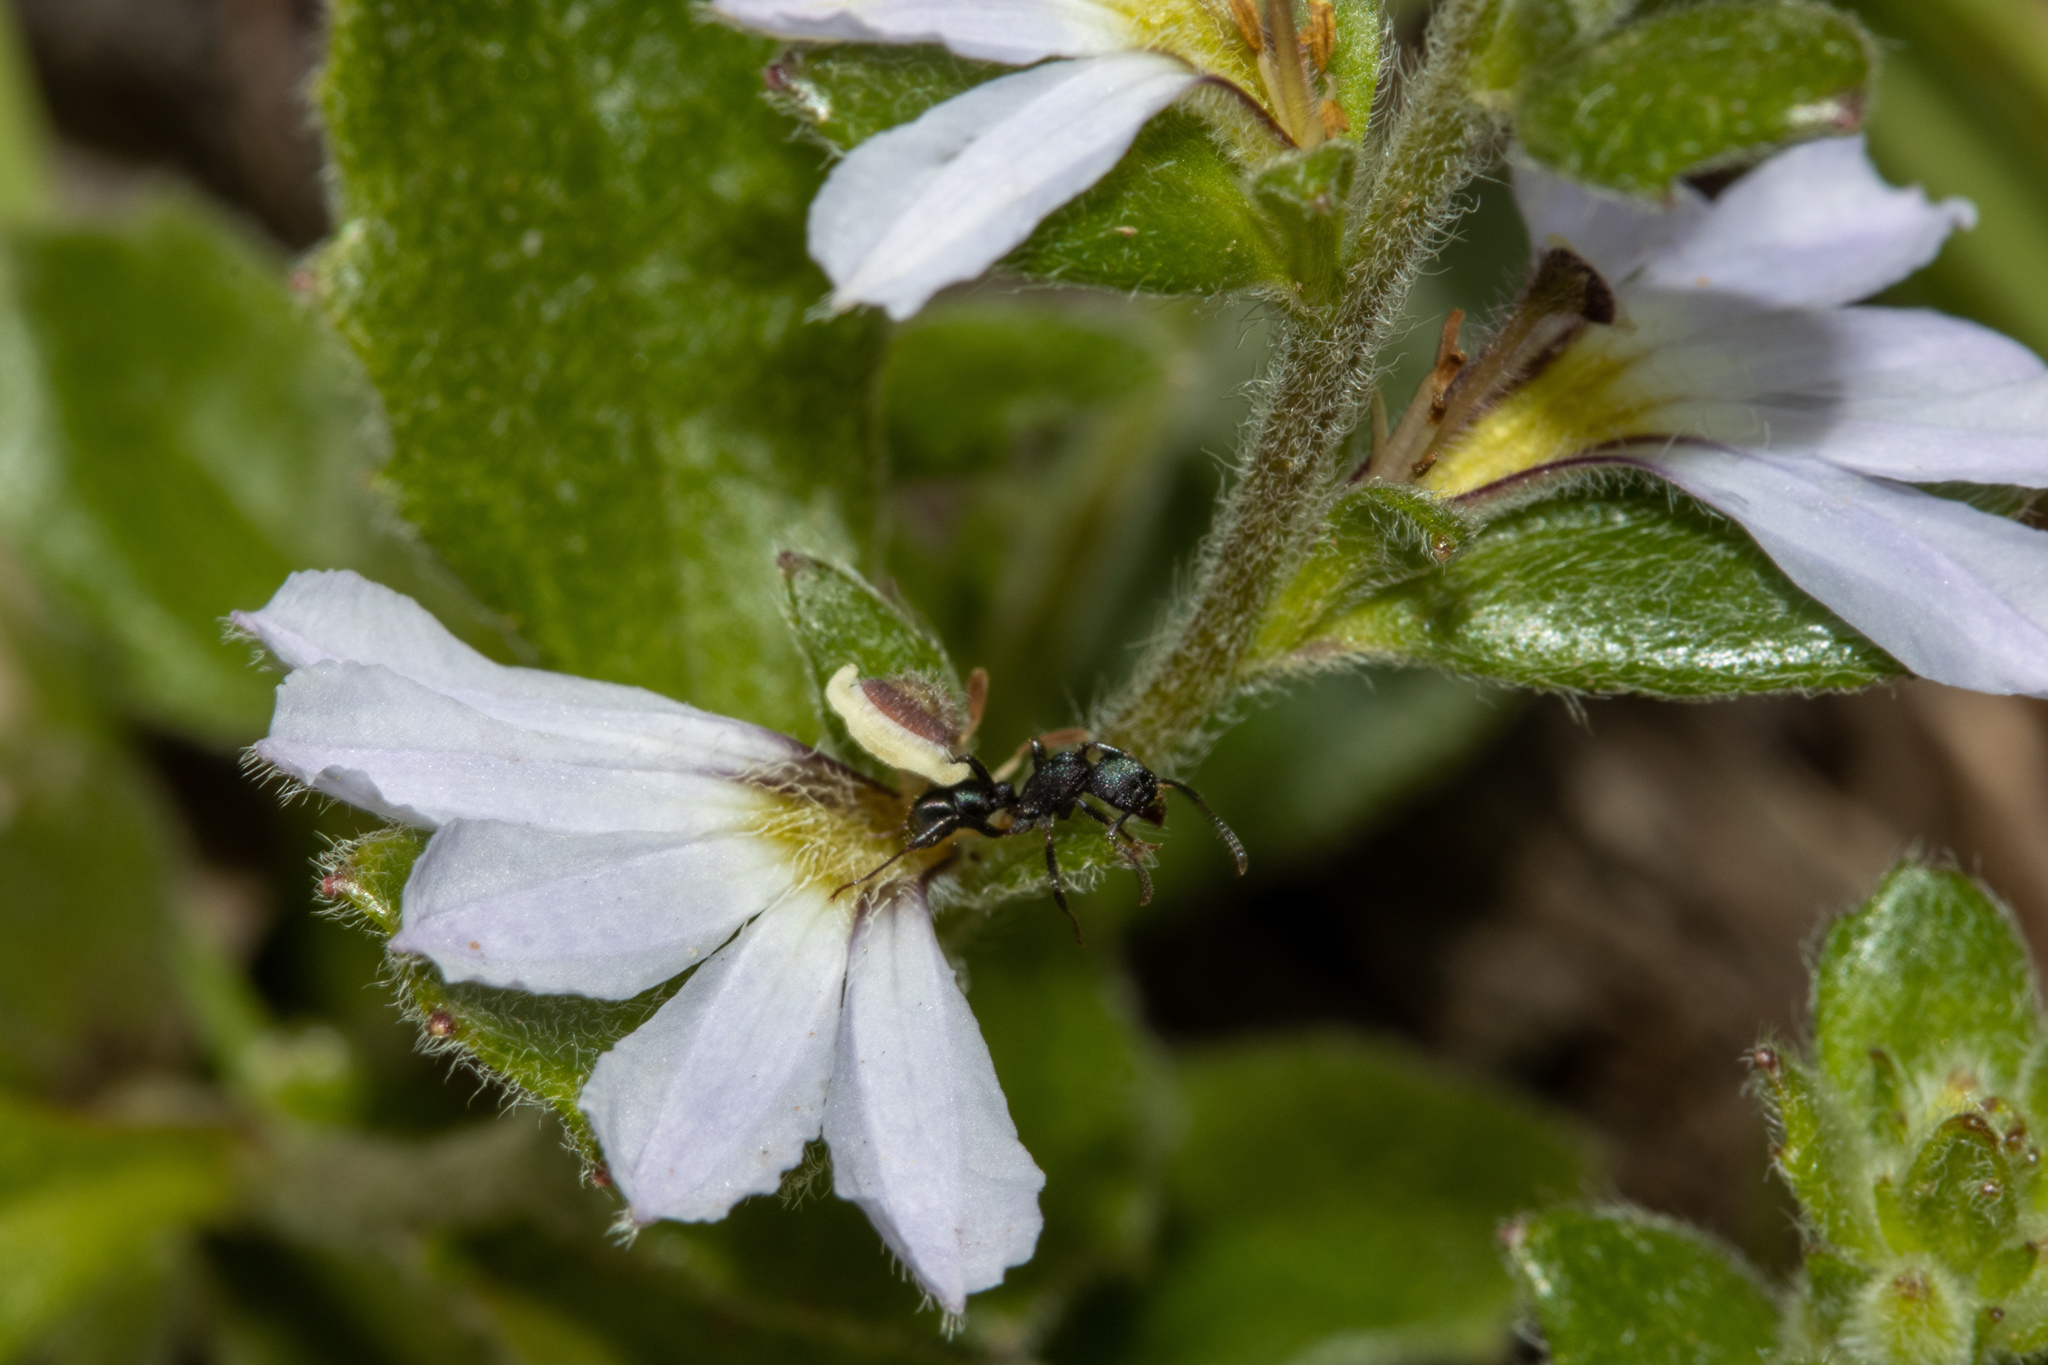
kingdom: Plantae
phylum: Tracheophyta
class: Magnoliopsida
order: Asterales
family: Goodeniaceae
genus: Scaevola
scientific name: Scaevola albida
